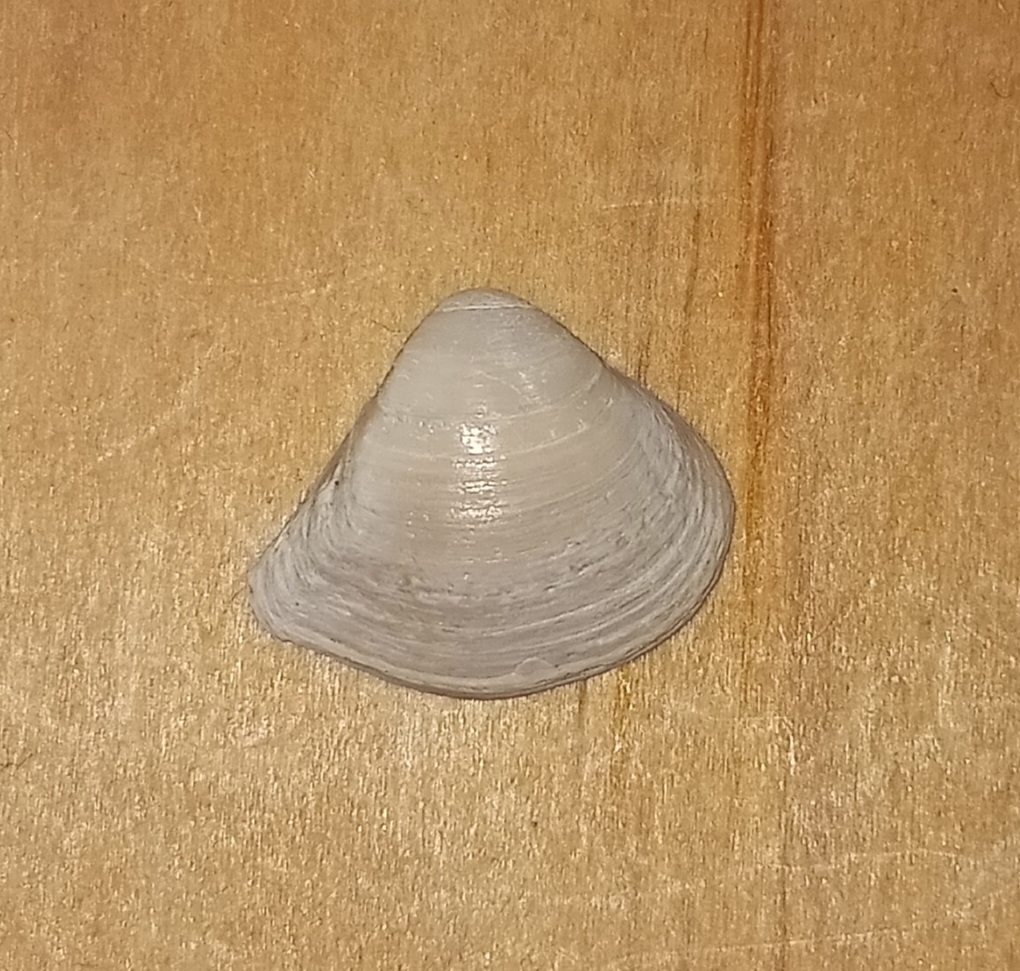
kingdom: Animalia
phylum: Mollusca
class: Bivalvia
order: Venerida
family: Mactridae
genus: Mulinia
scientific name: Mulinia lateralis
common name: Dwarf surfclam
